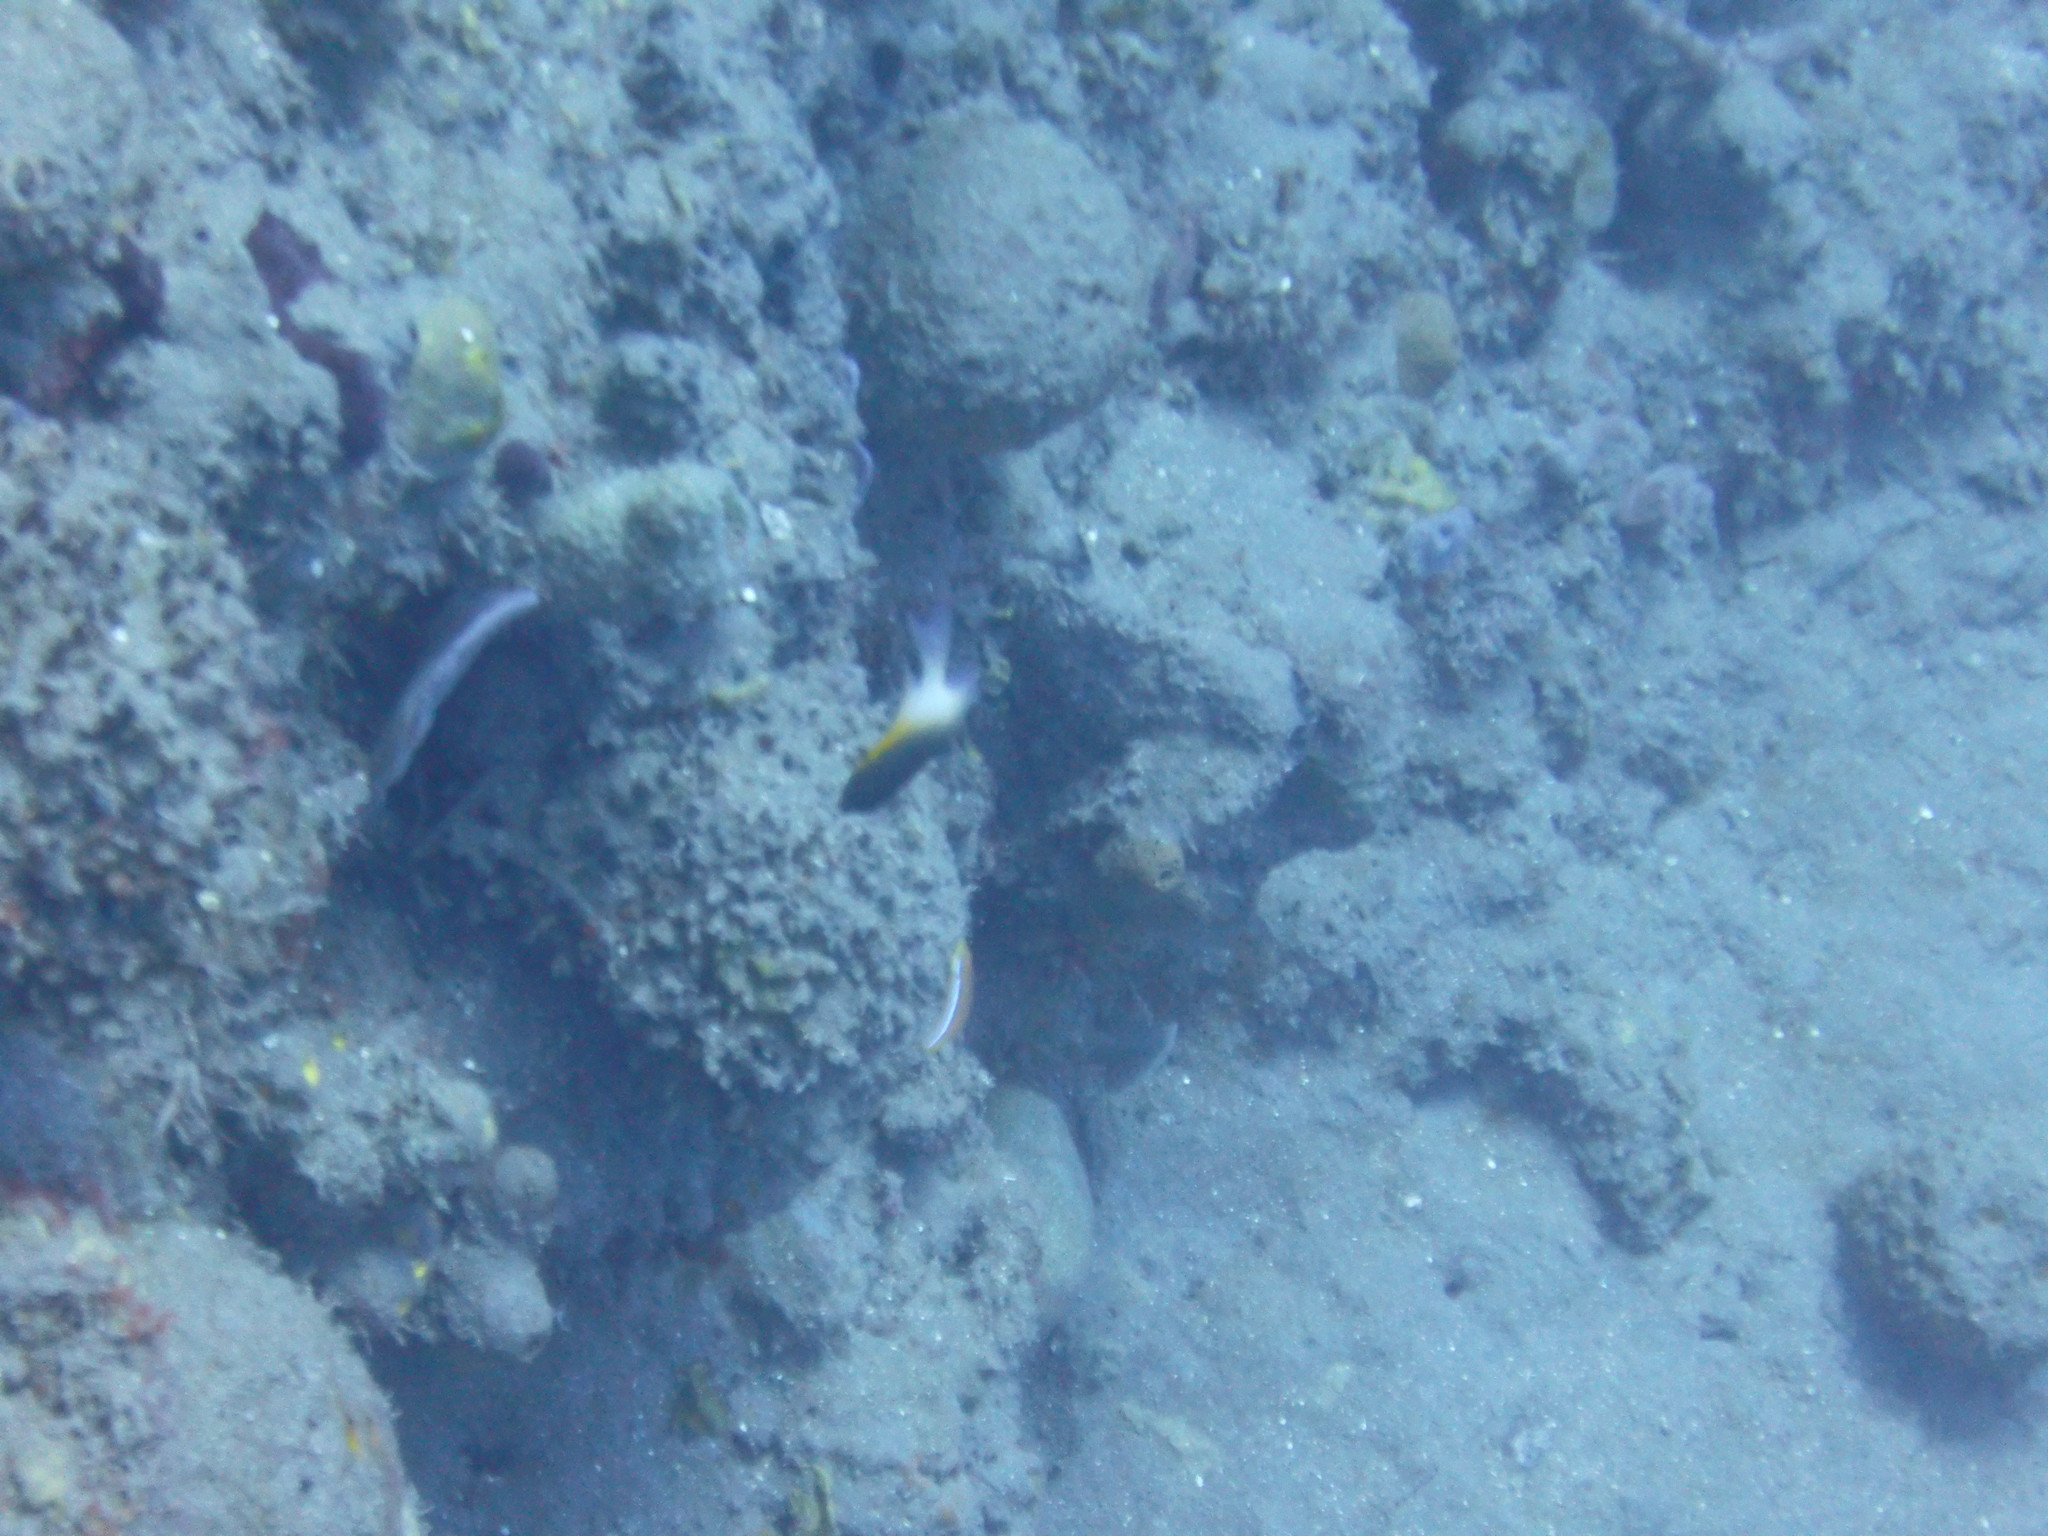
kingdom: Animalia
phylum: Chordata
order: Perciformes
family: Pomacentridae
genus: Stegastes
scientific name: Stegastes partitus
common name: Bicolor damselfish
